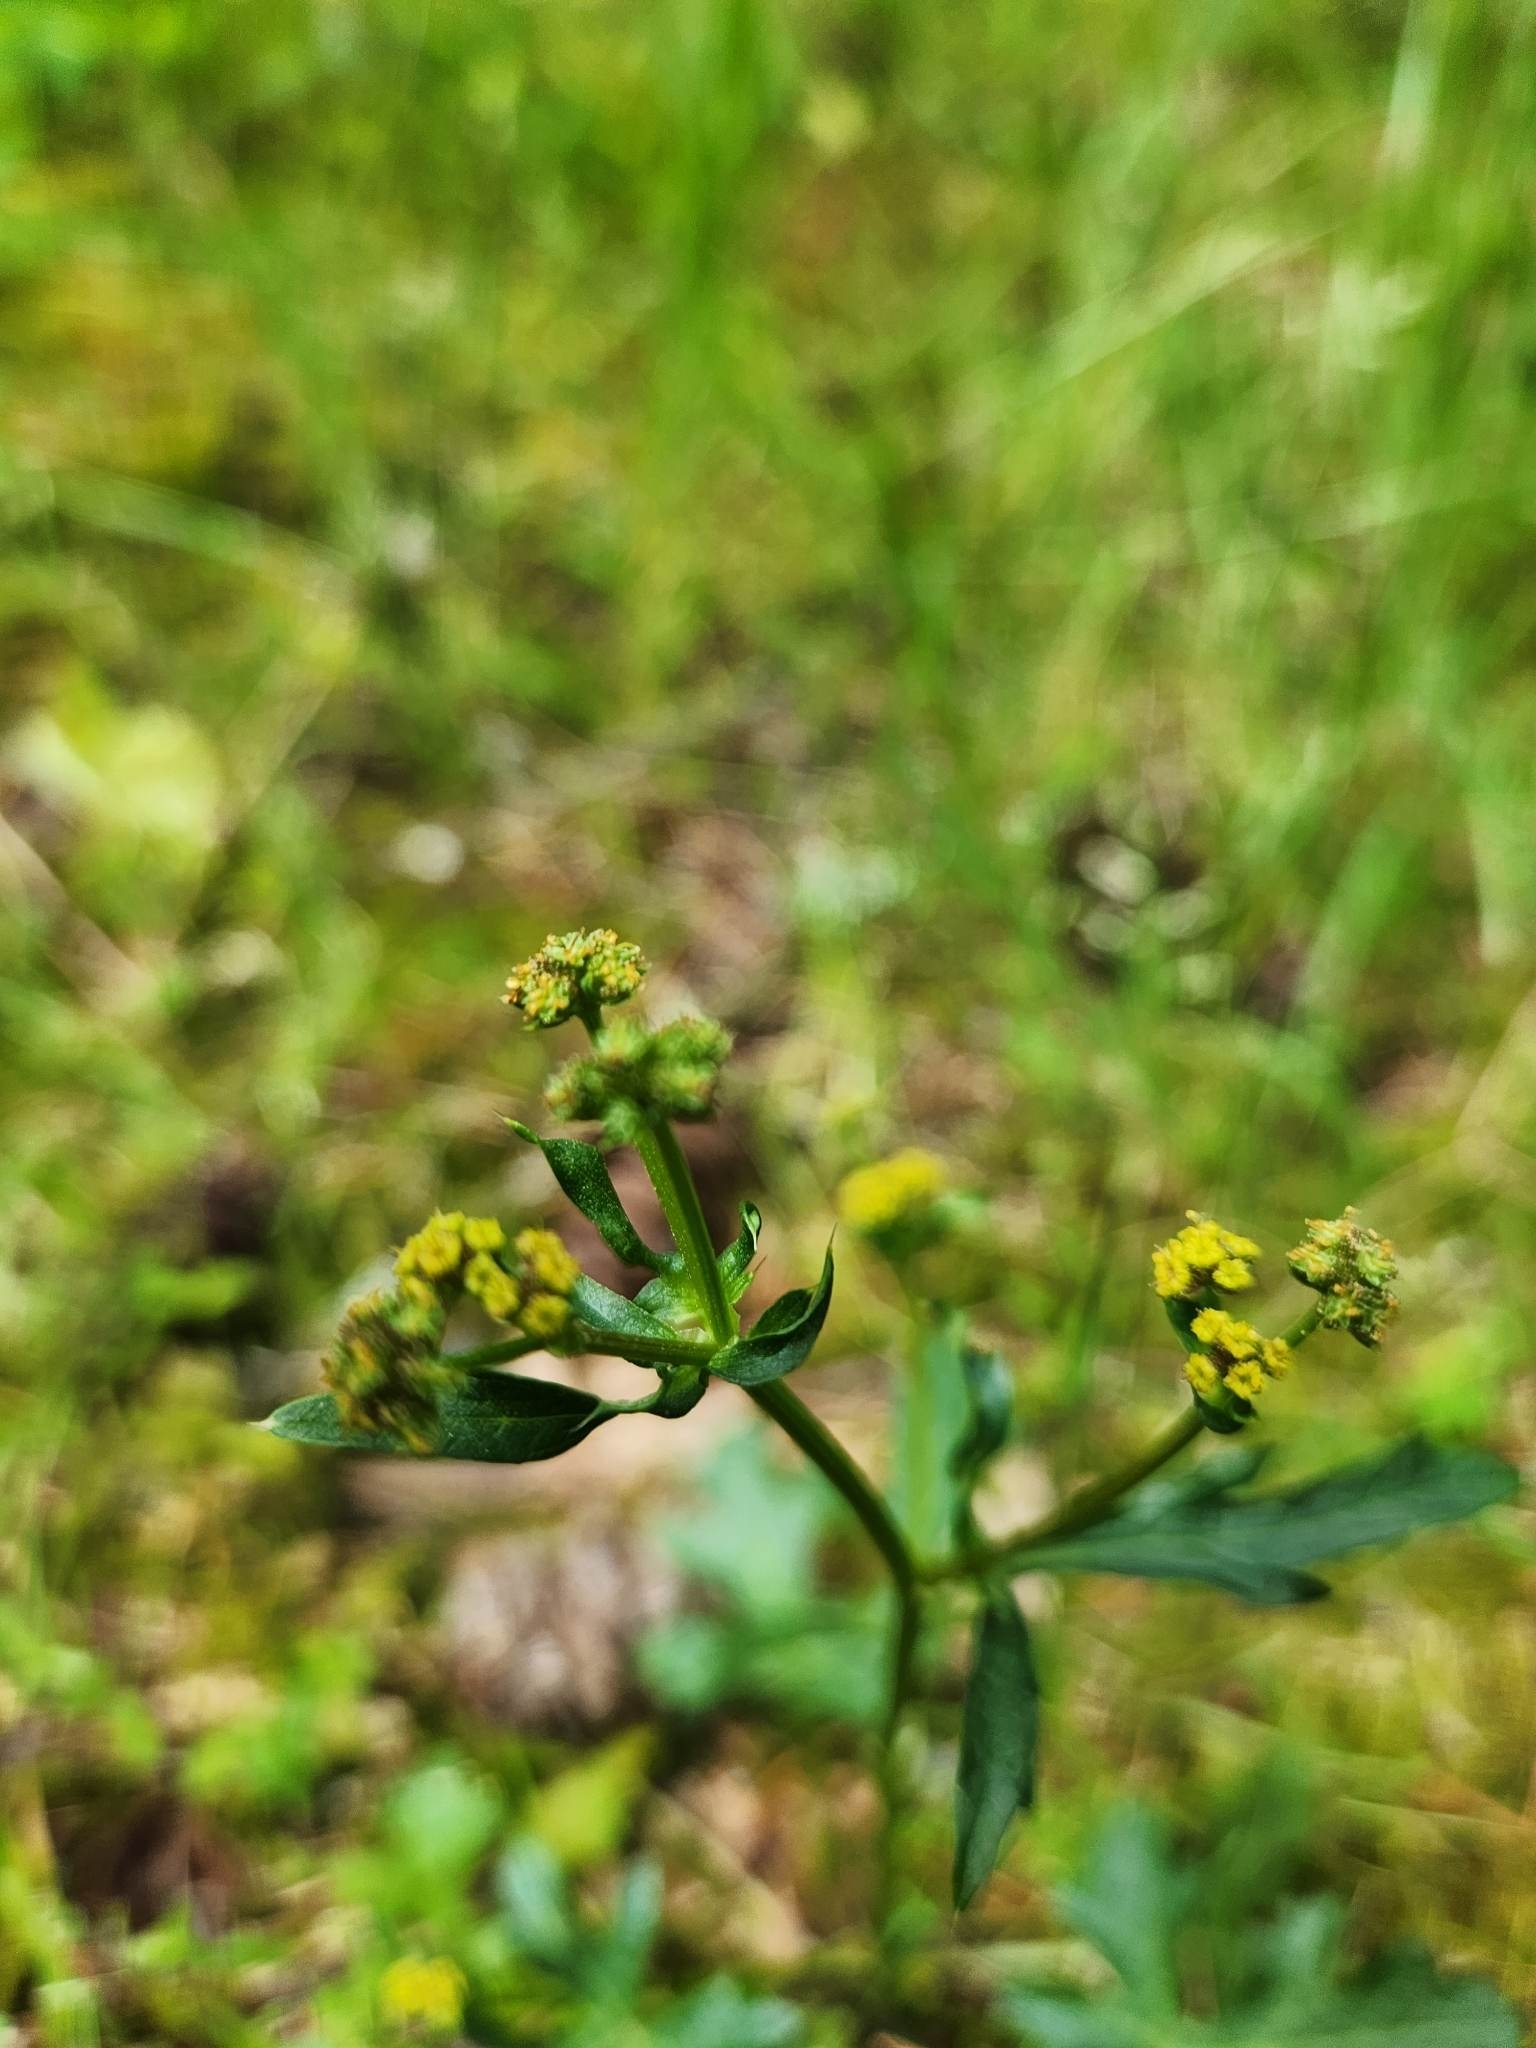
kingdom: Plantae
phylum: Tracheophyta
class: Magnoliopsida
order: Apiales
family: Apiaceae
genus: Sanicula
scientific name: Sanicula crassicaulis
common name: Western snakeroot
